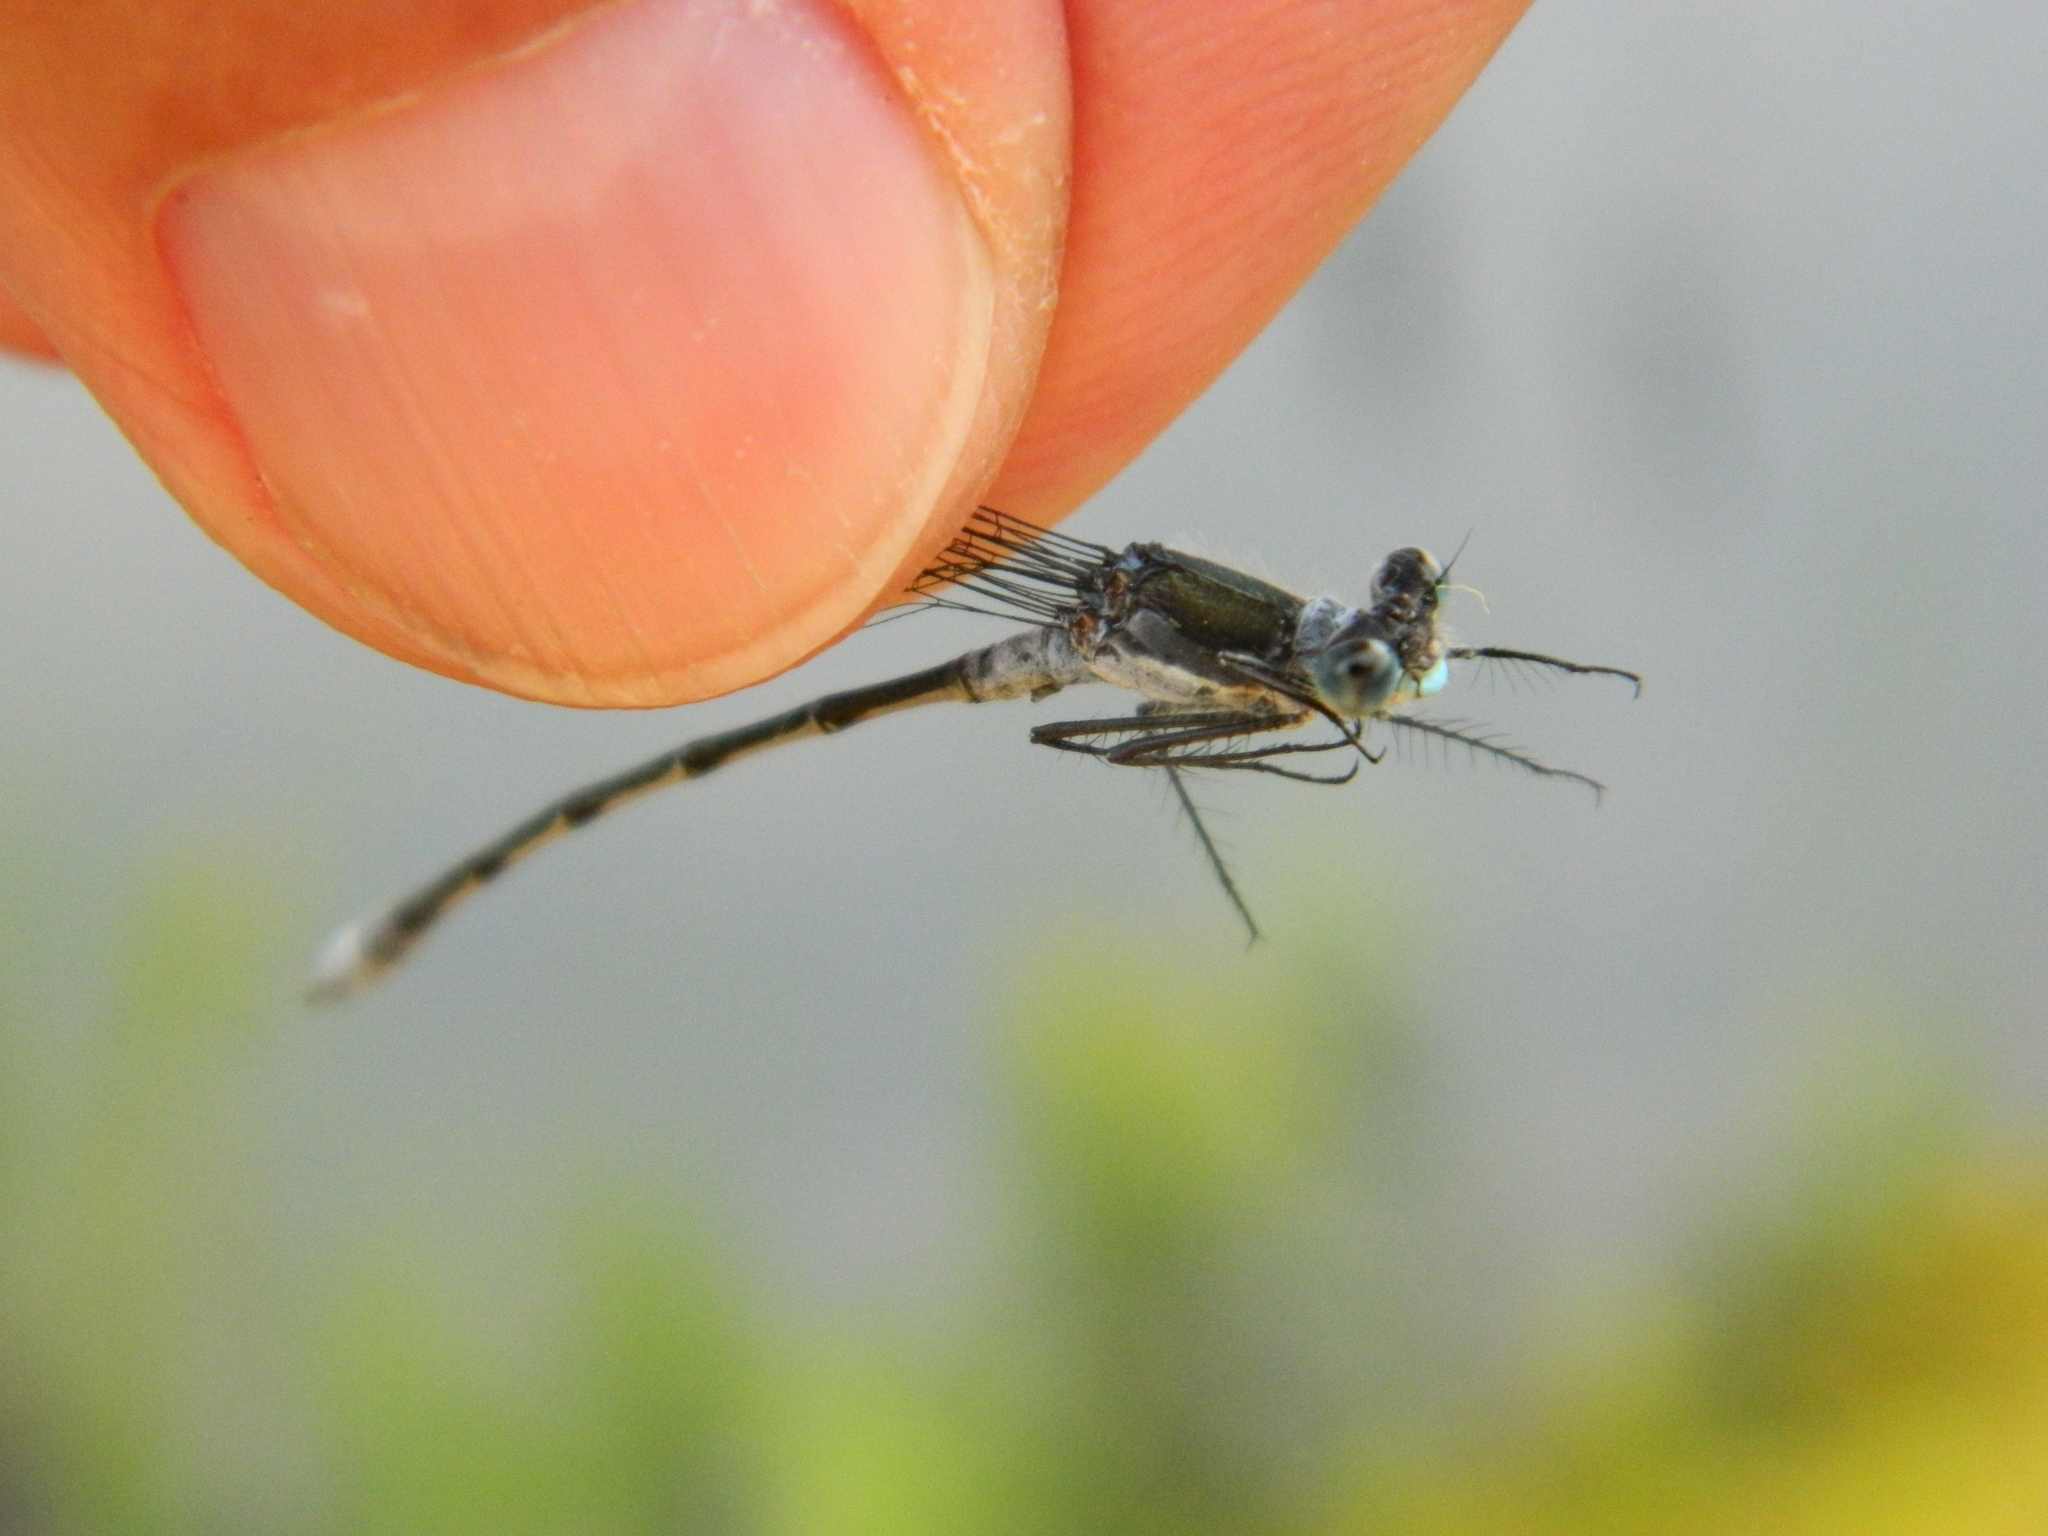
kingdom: Animalia
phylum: Arthropoda
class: Insecta
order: Odonata
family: Lestidae
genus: Lestes
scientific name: Lestes disjunctus
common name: Northern spreadwing
